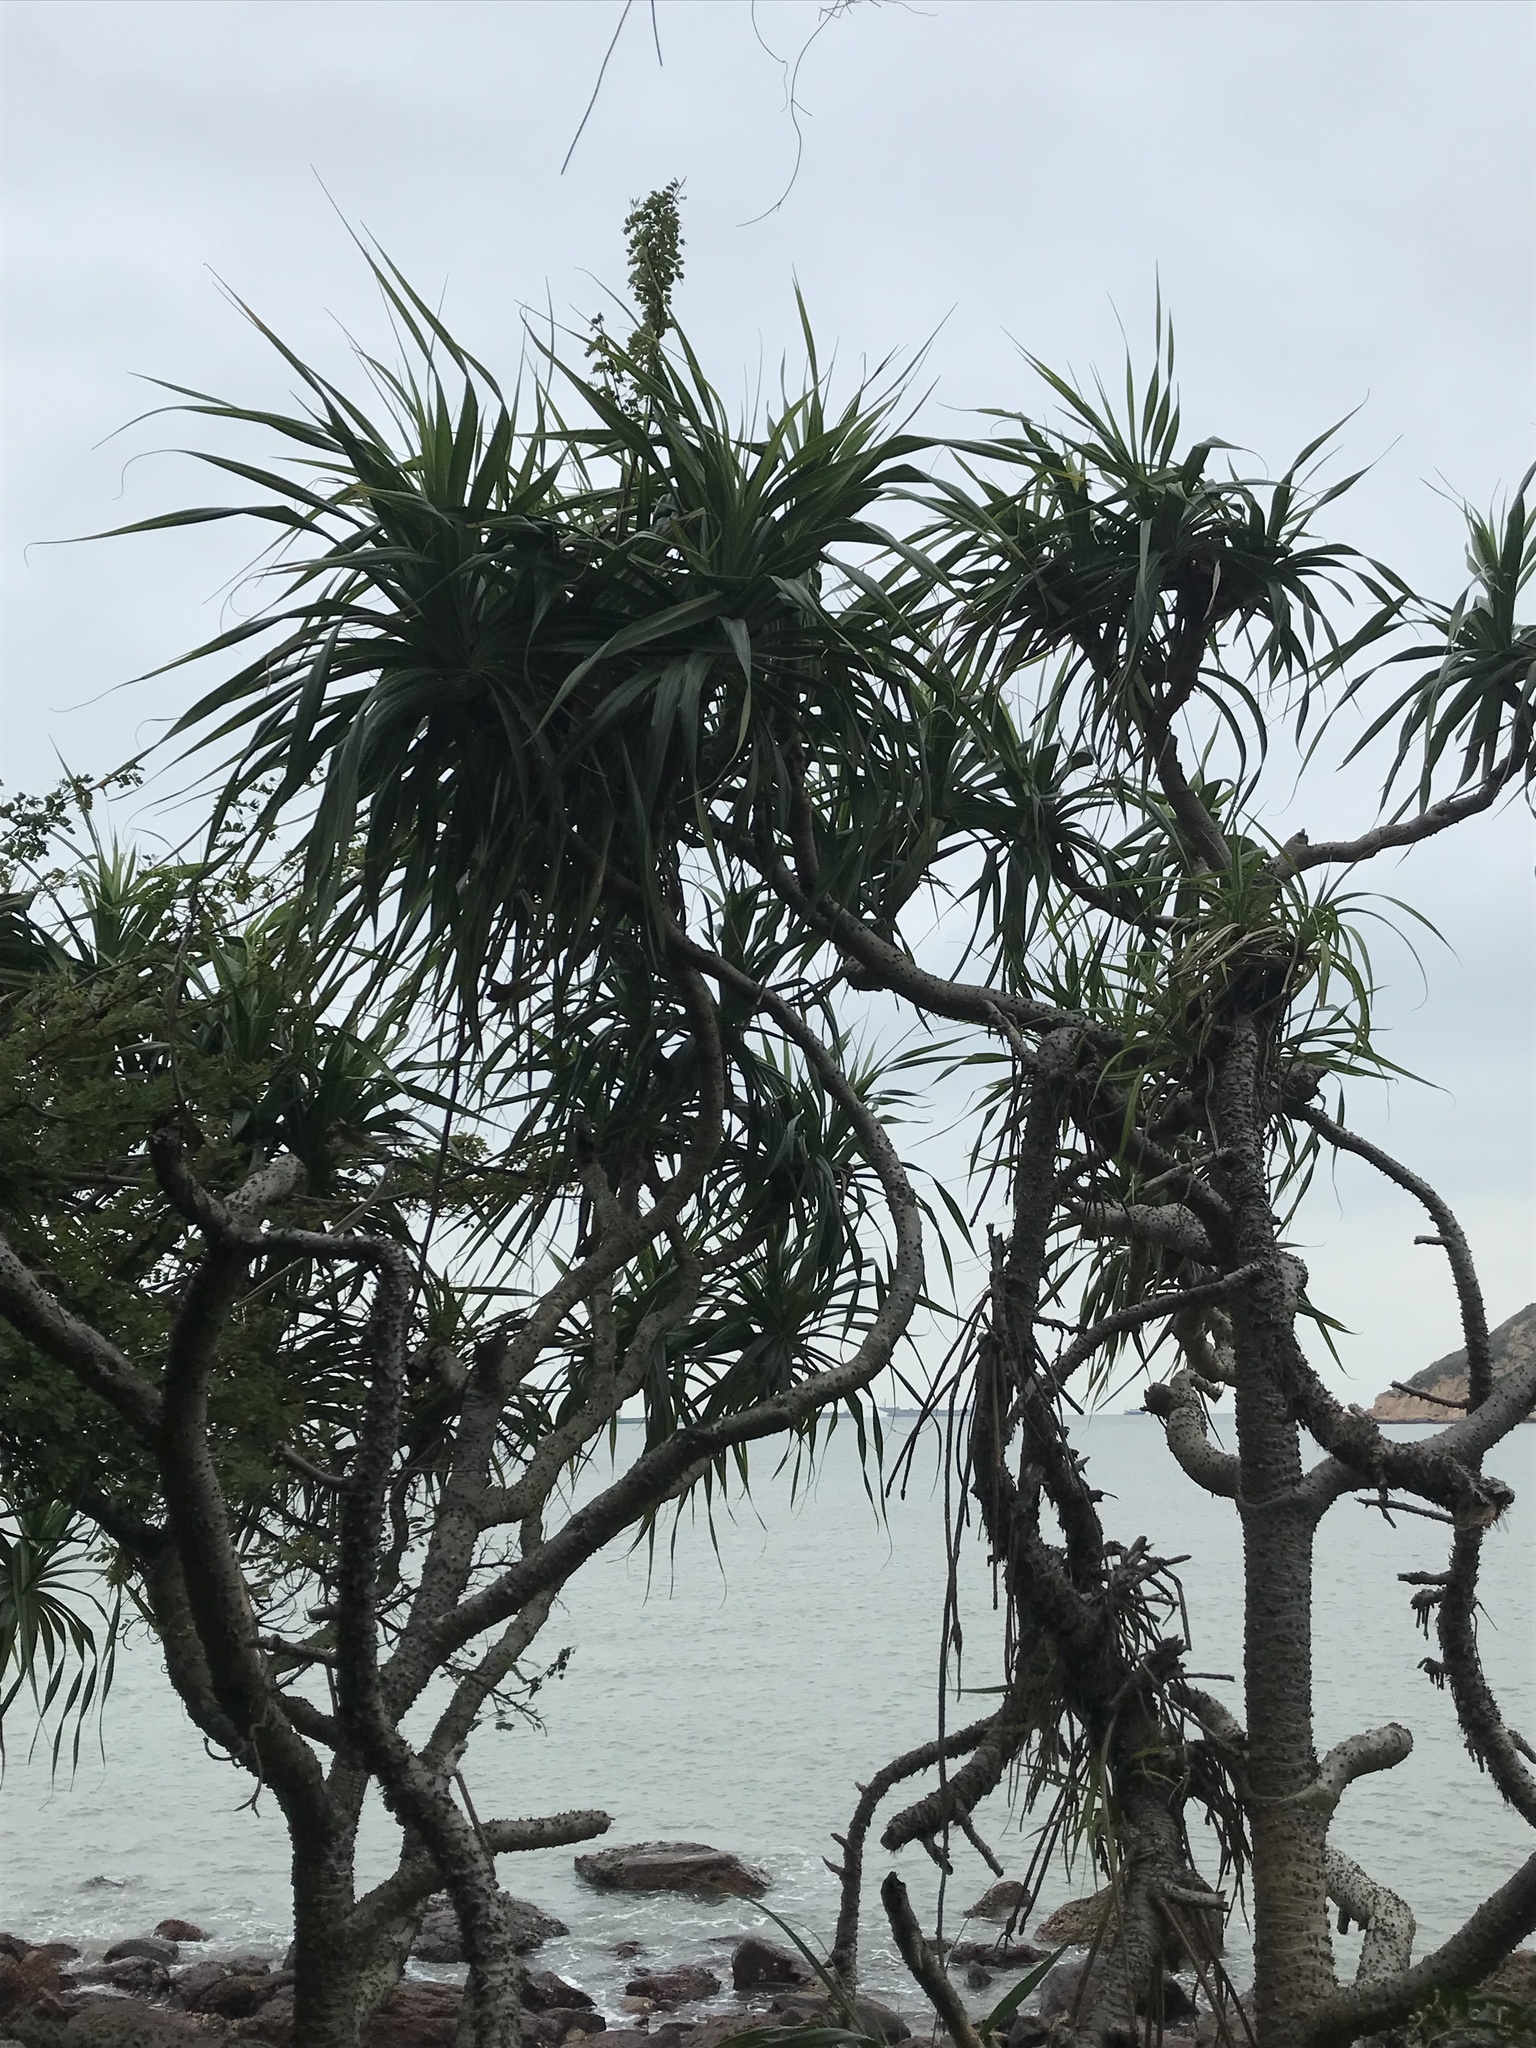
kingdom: Plantae
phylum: Tracheophyta
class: Liliopsida
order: Pandanales
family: Pandanaceae
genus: Pandanus
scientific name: Pandanus tectorius
